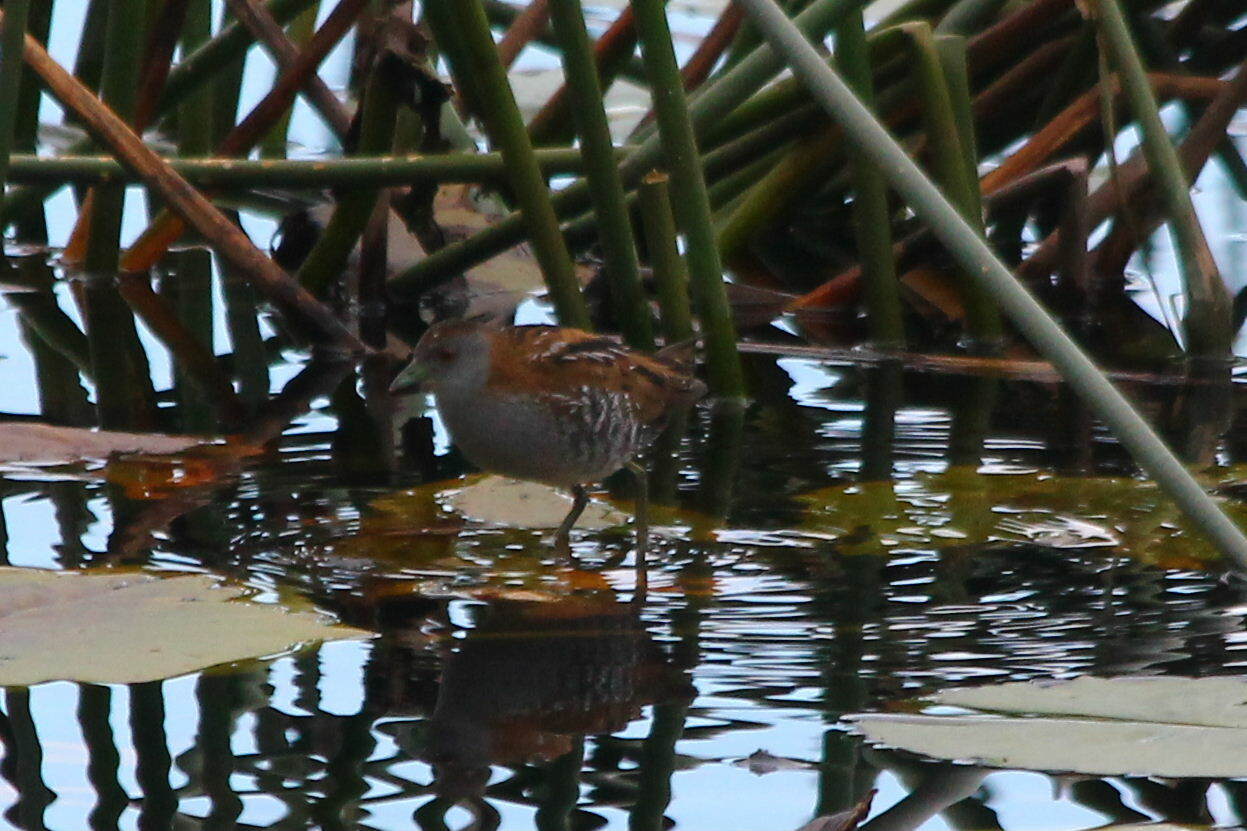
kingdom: Animalia
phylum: Chordata
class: Aves
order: Gruiformes
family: Rallidae
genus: Porzana
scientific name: Porzana pusilla
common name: Baillon's crake
